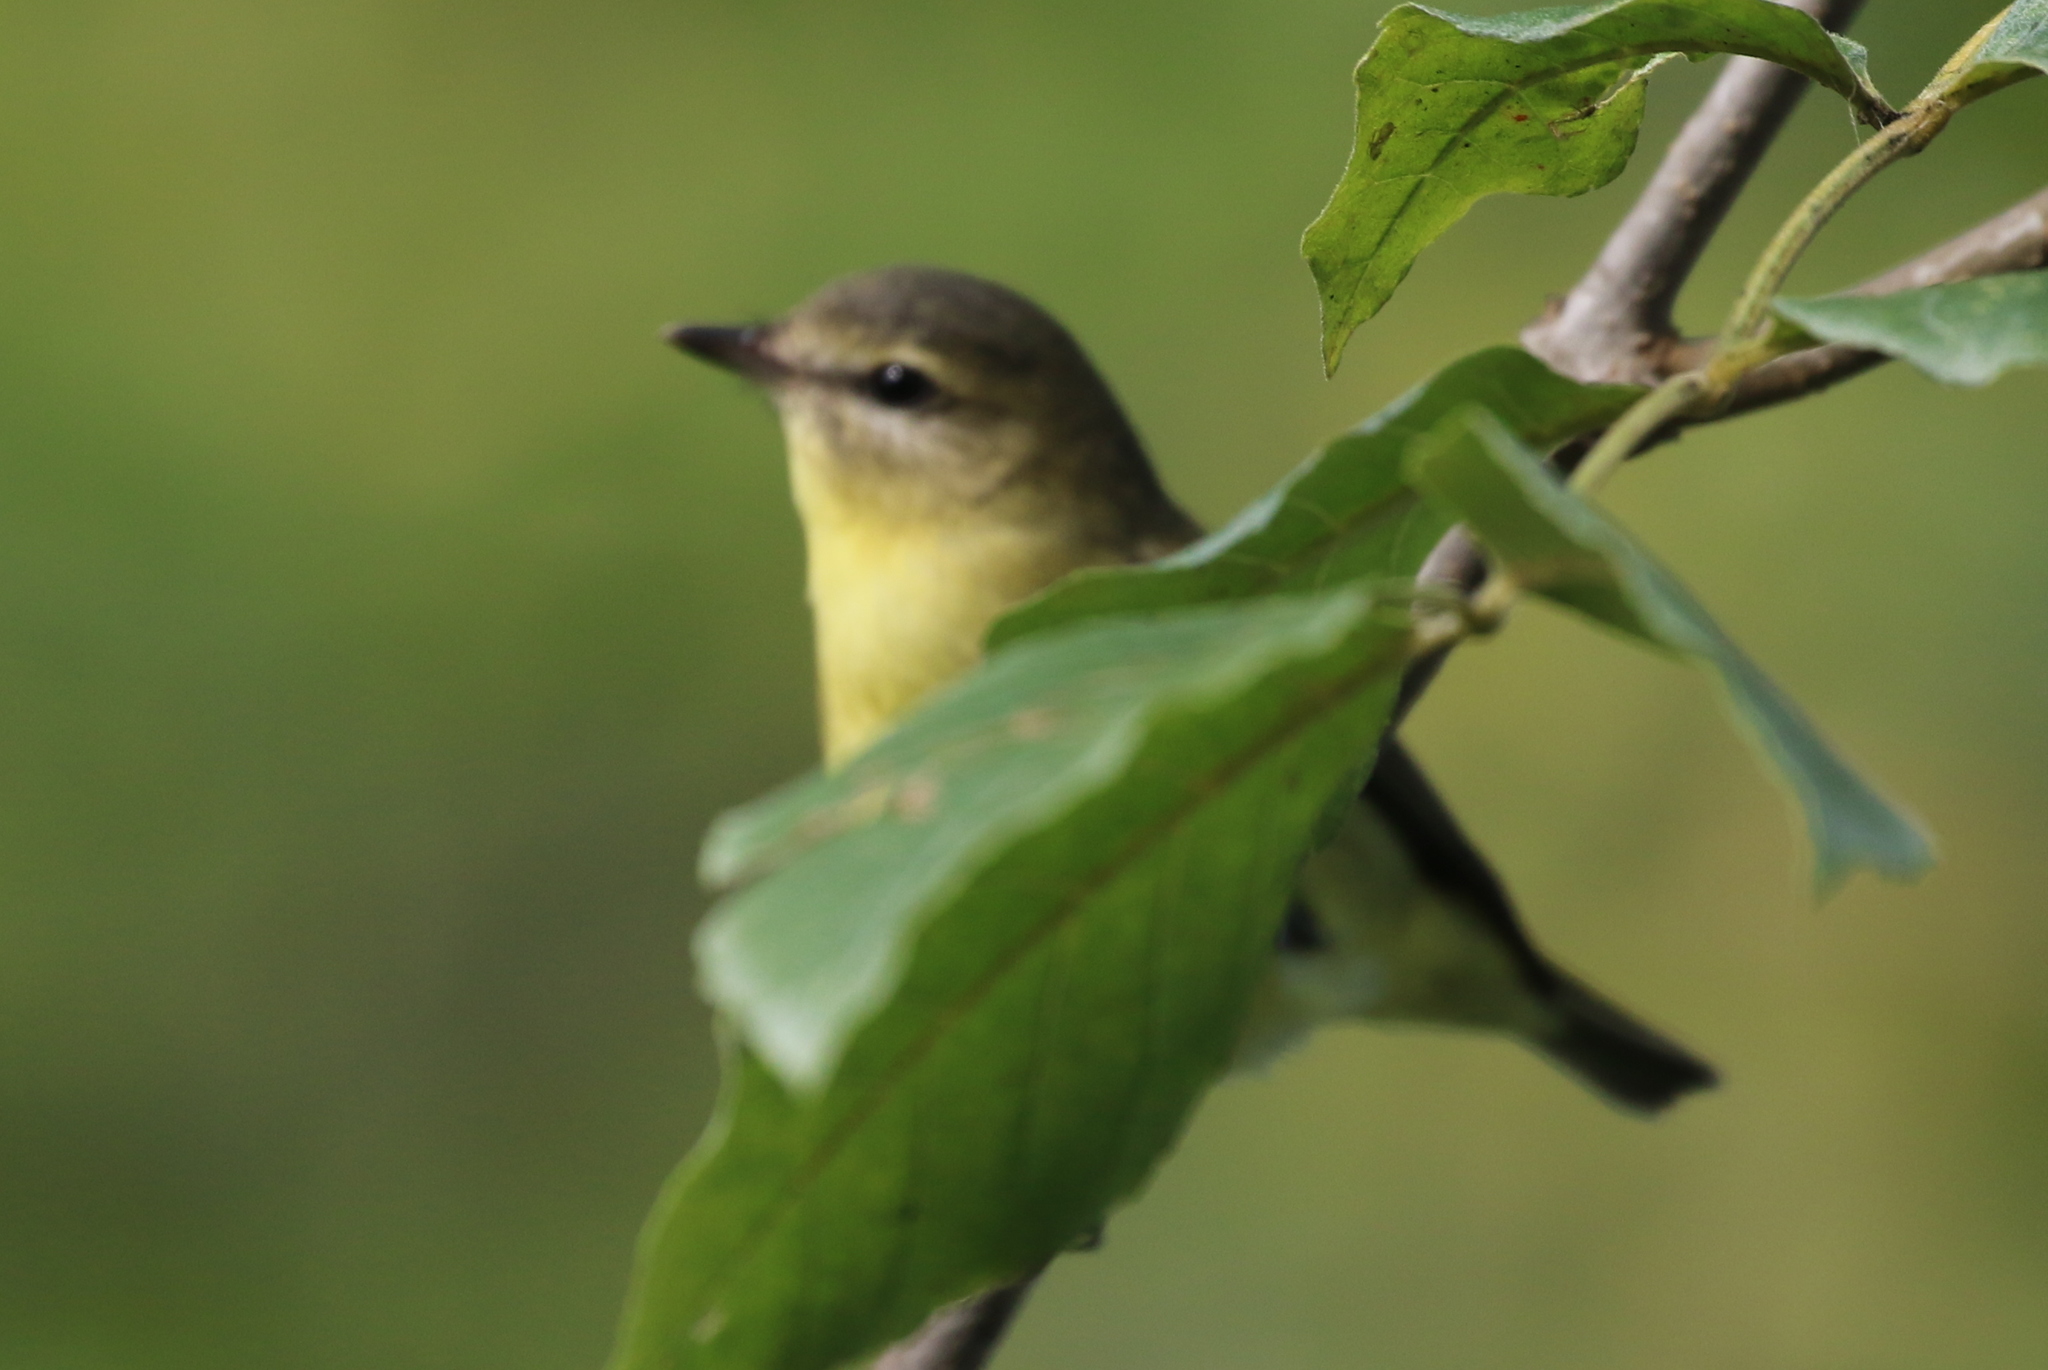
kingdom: Animalia
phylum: Chordata
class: Aves
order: Passeriformes
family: Vireonidae
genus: Vireo
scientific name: Vireo philadelphicus
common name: Philadelphia vireo
